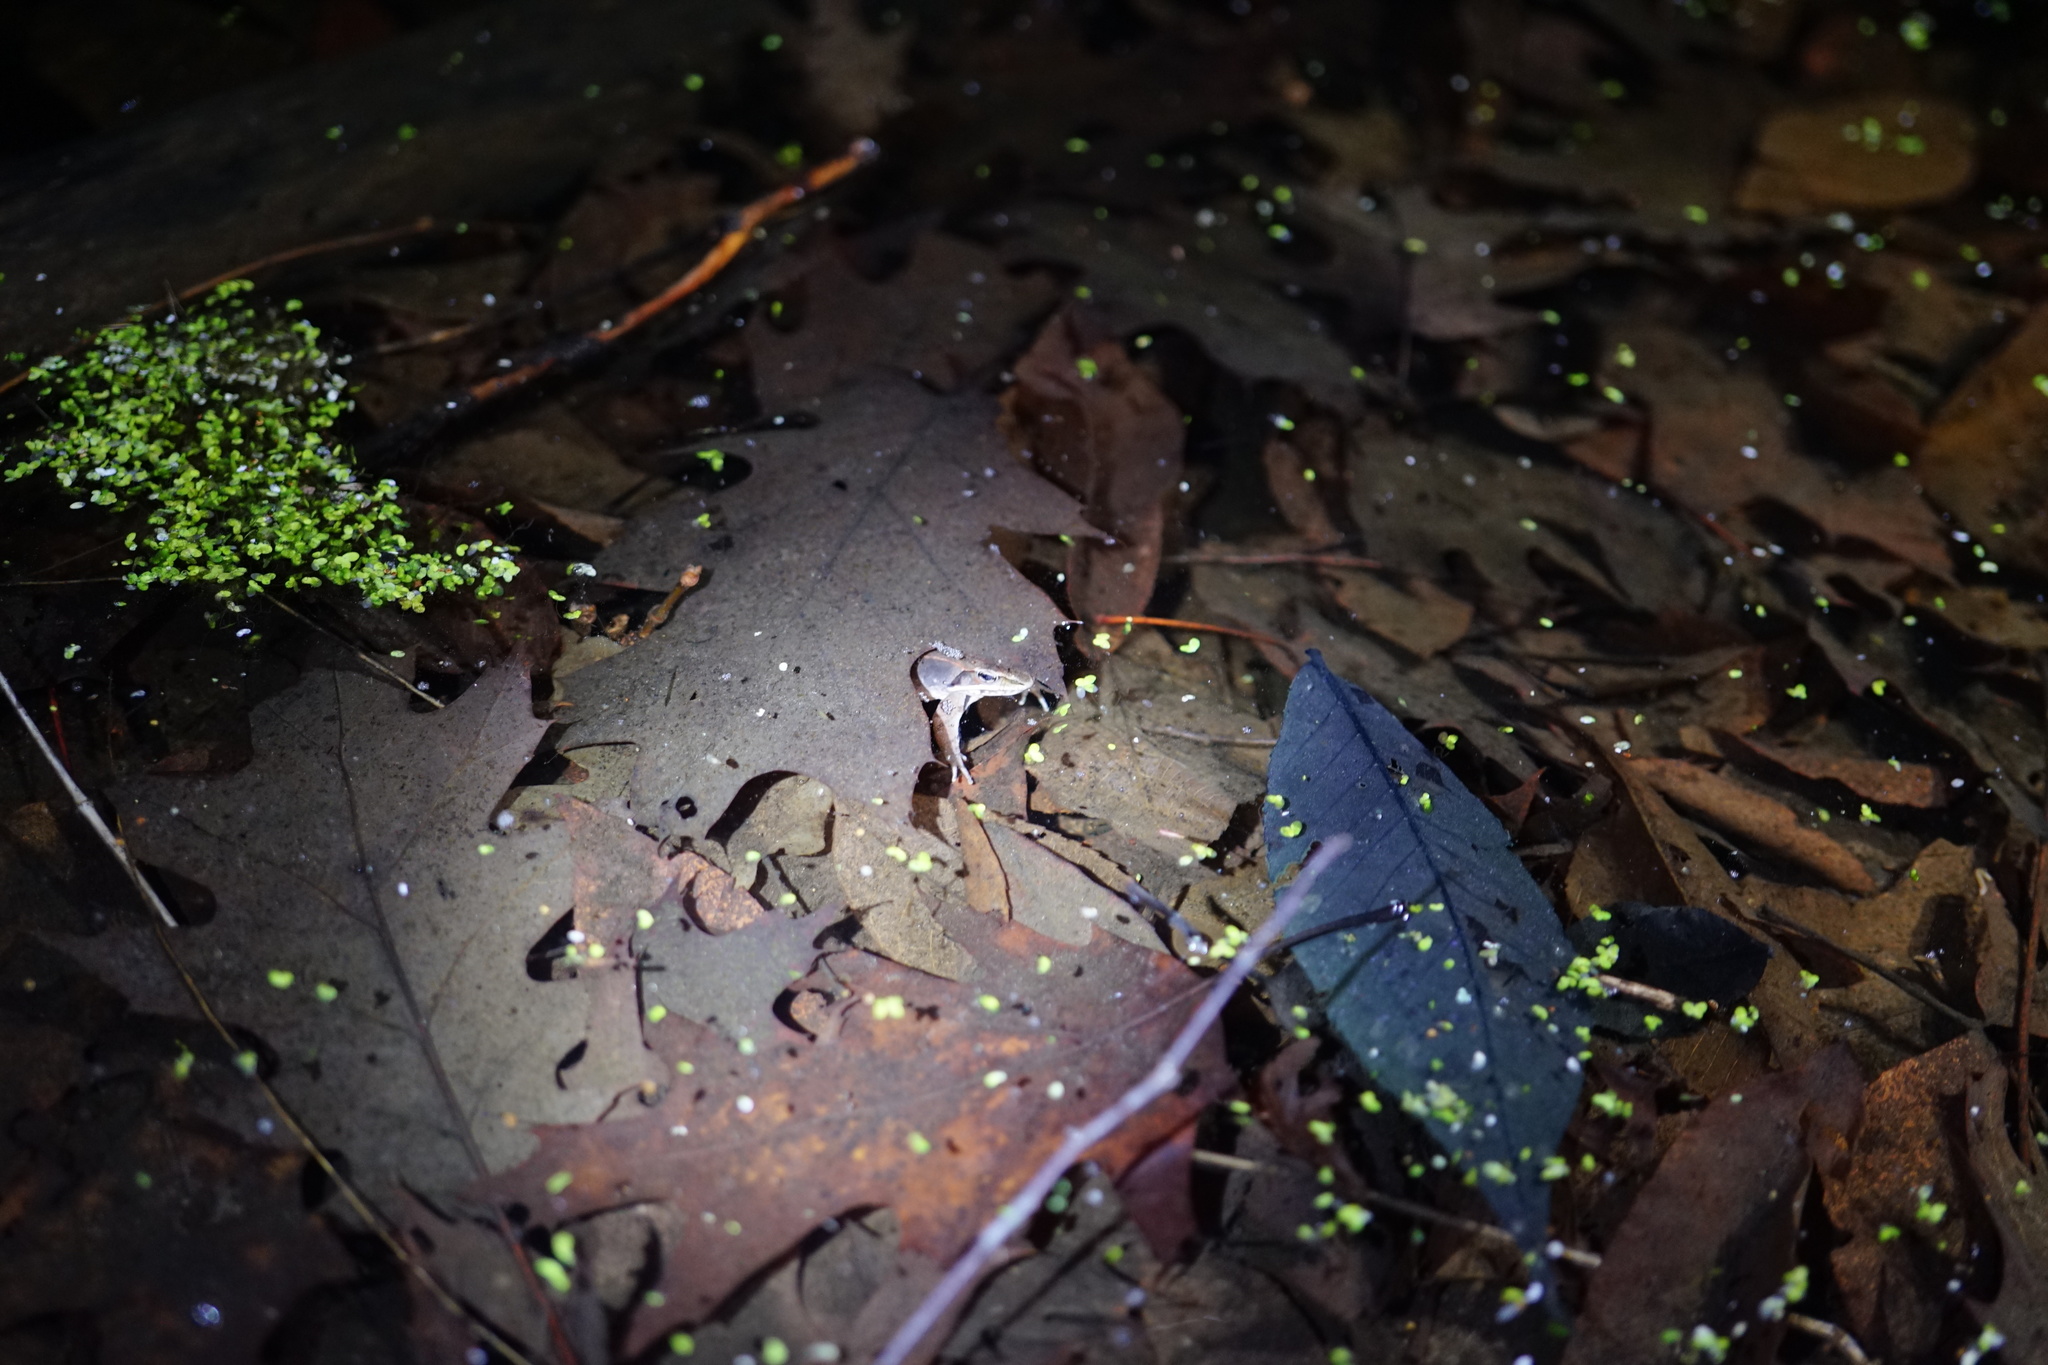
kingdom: Animalia
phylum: Chordata
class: Amphibia
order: Anura
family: Ranidae
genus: Lithobates
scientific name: Lithobates sylvaticus
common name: Wood frog
